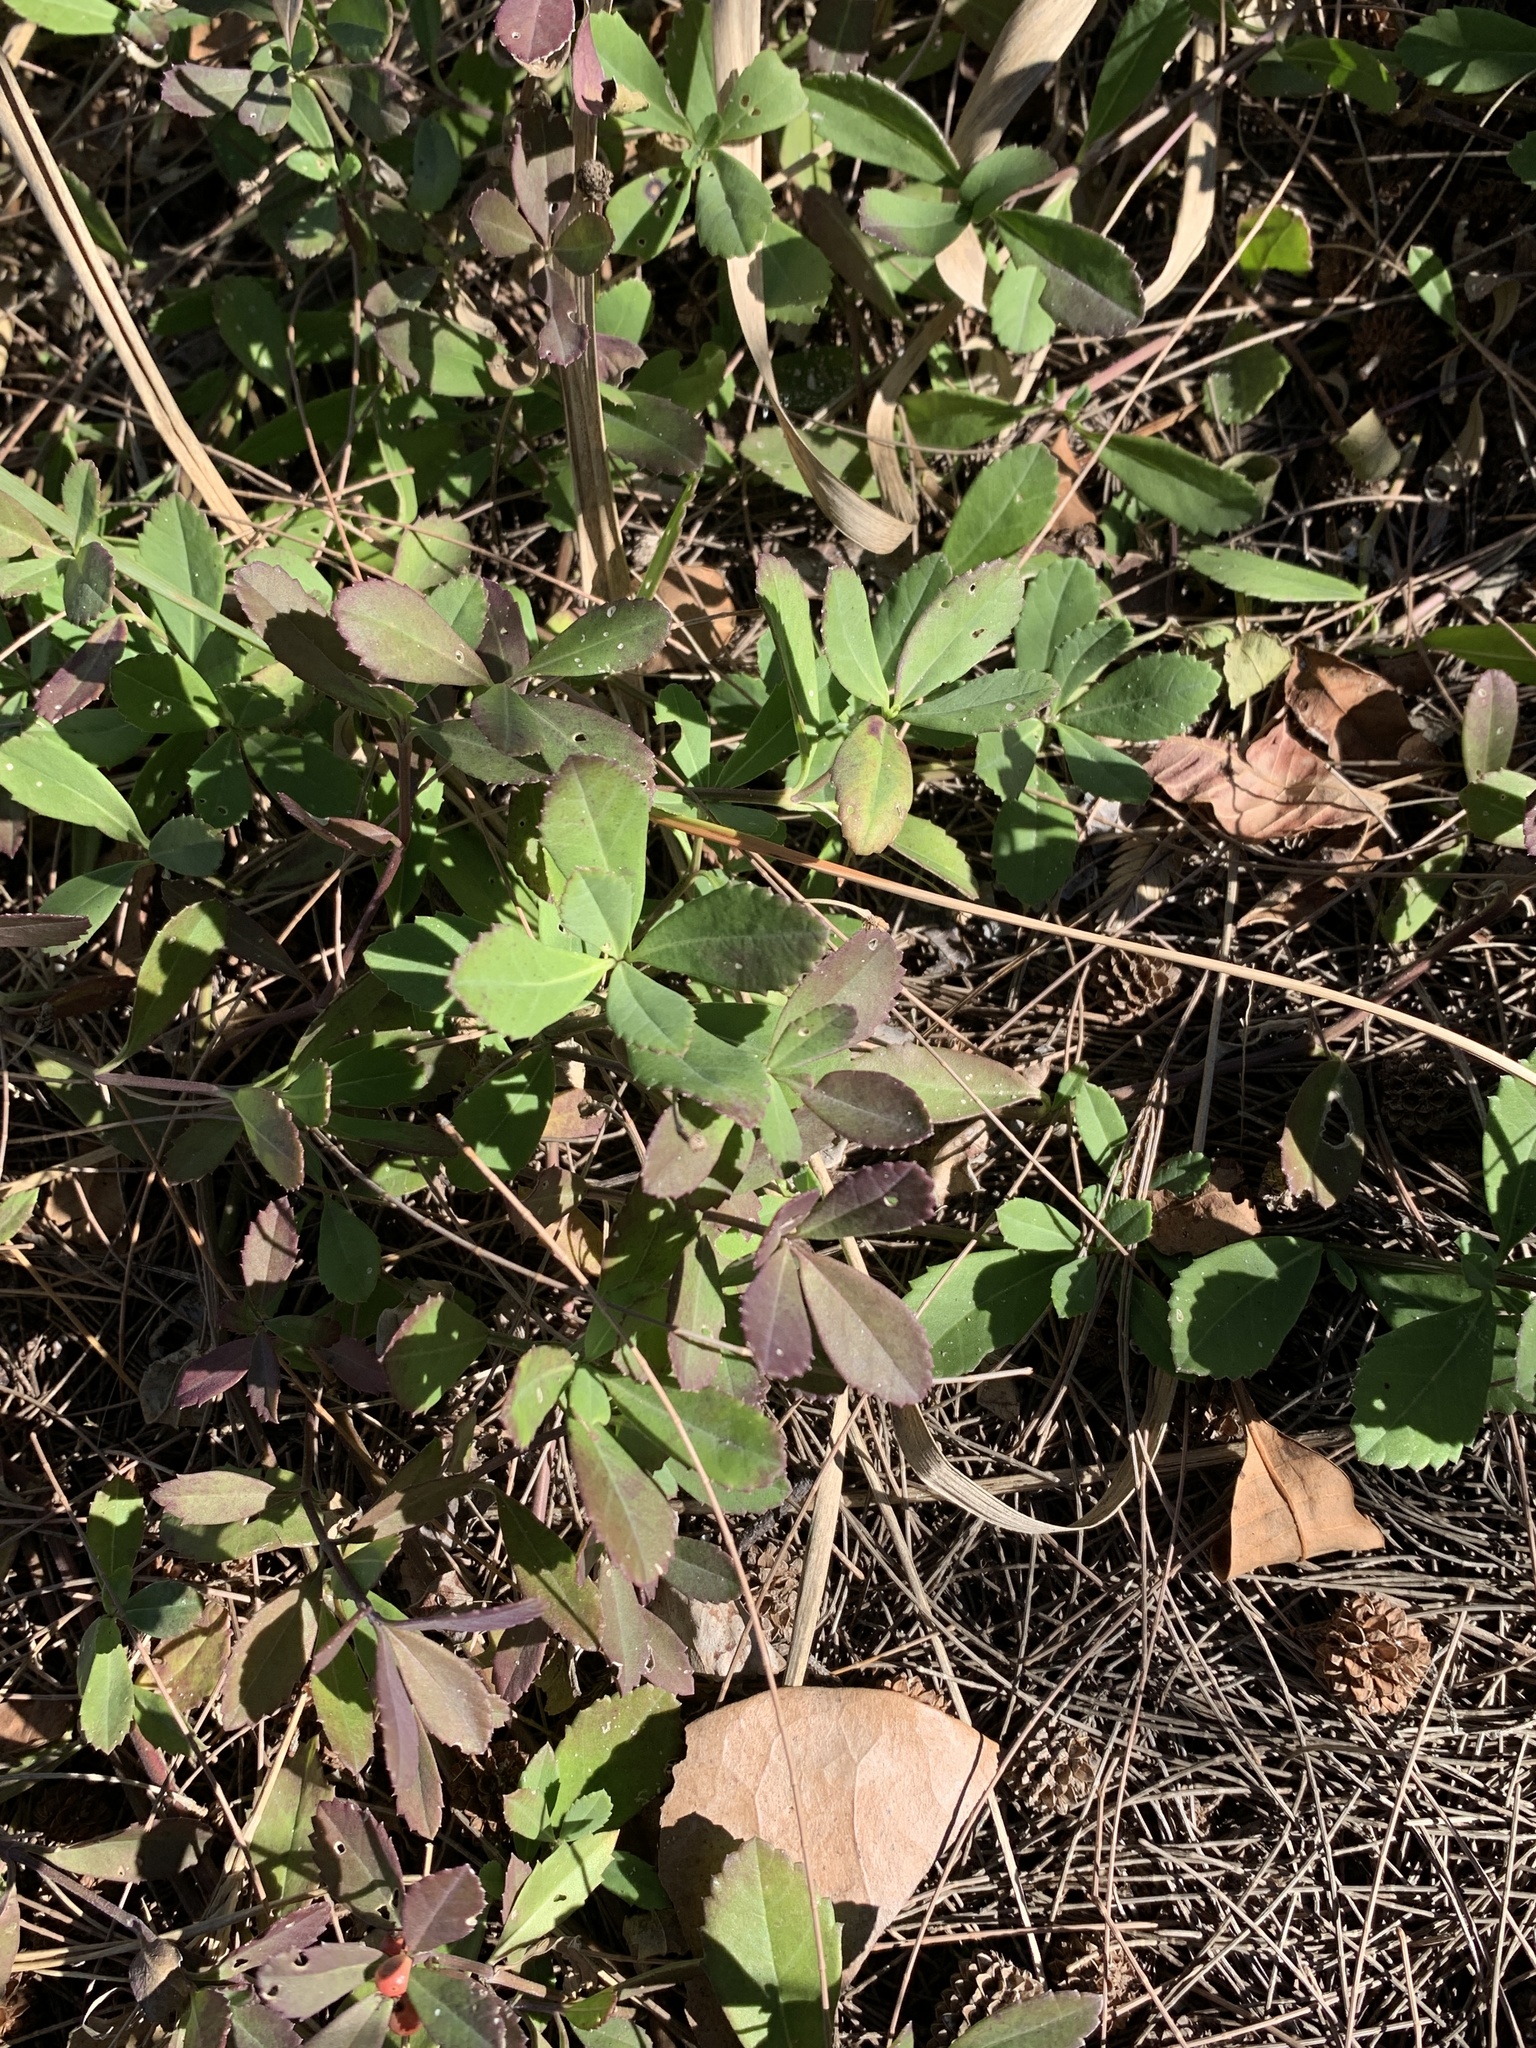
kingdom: Plantae
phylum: Tracheophyta
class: Magnoliopsida
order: Lamiales
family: Verbenaceae
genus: Phyla
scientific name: Phyla nodiflora
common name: Frogfruit
